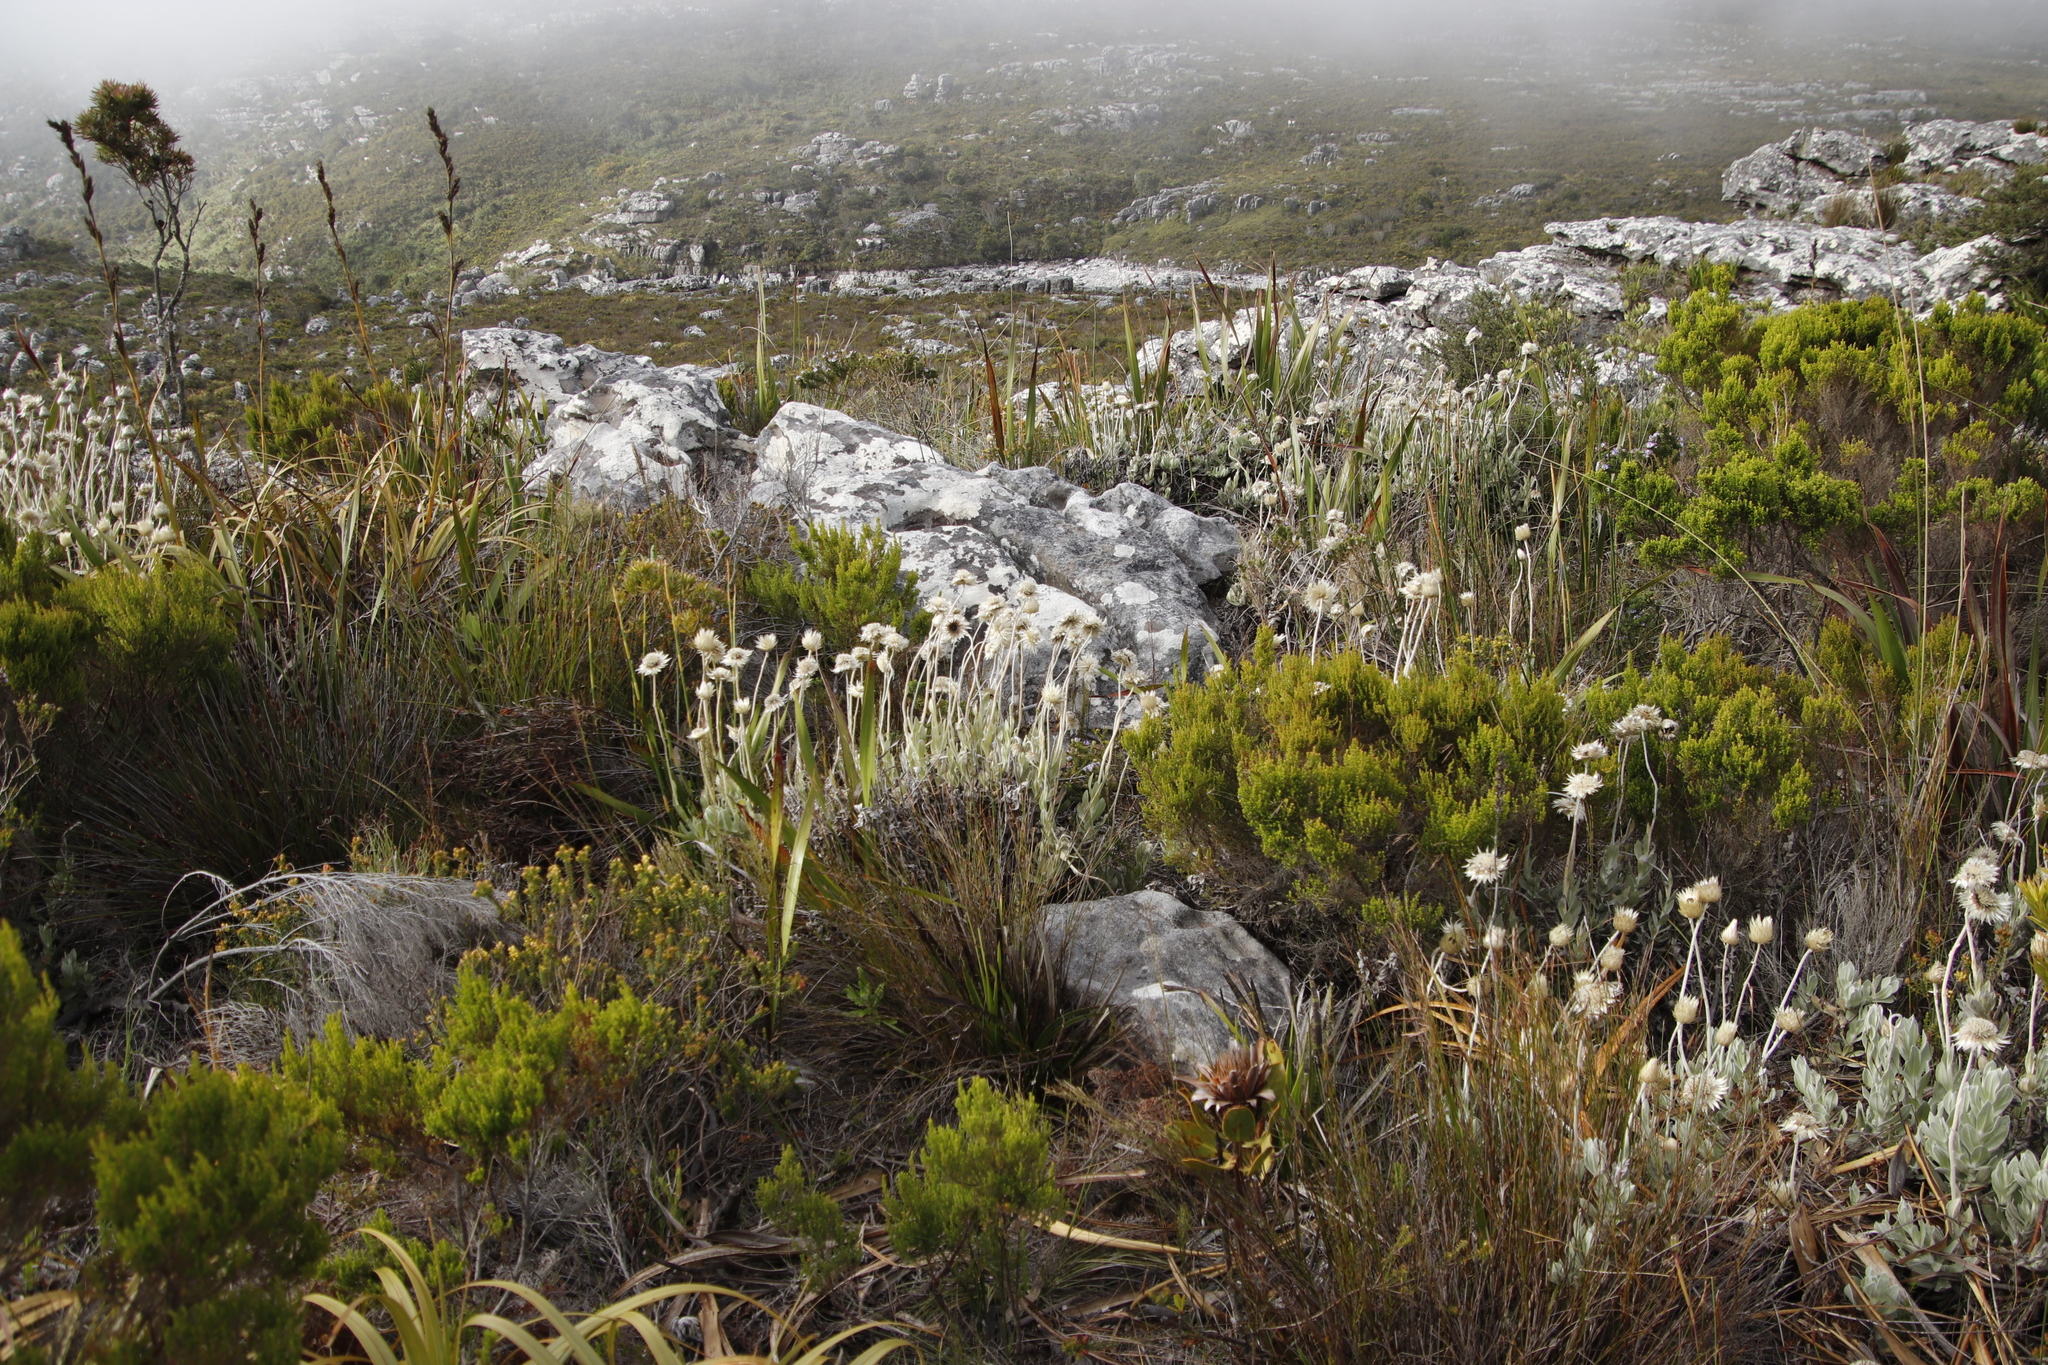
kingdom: Plantae
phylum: Tracheophyta
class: Magnoliopsida
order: Asterales
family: Asteraceae
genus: Syncarpha
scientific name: Syncarpha speciosissima
